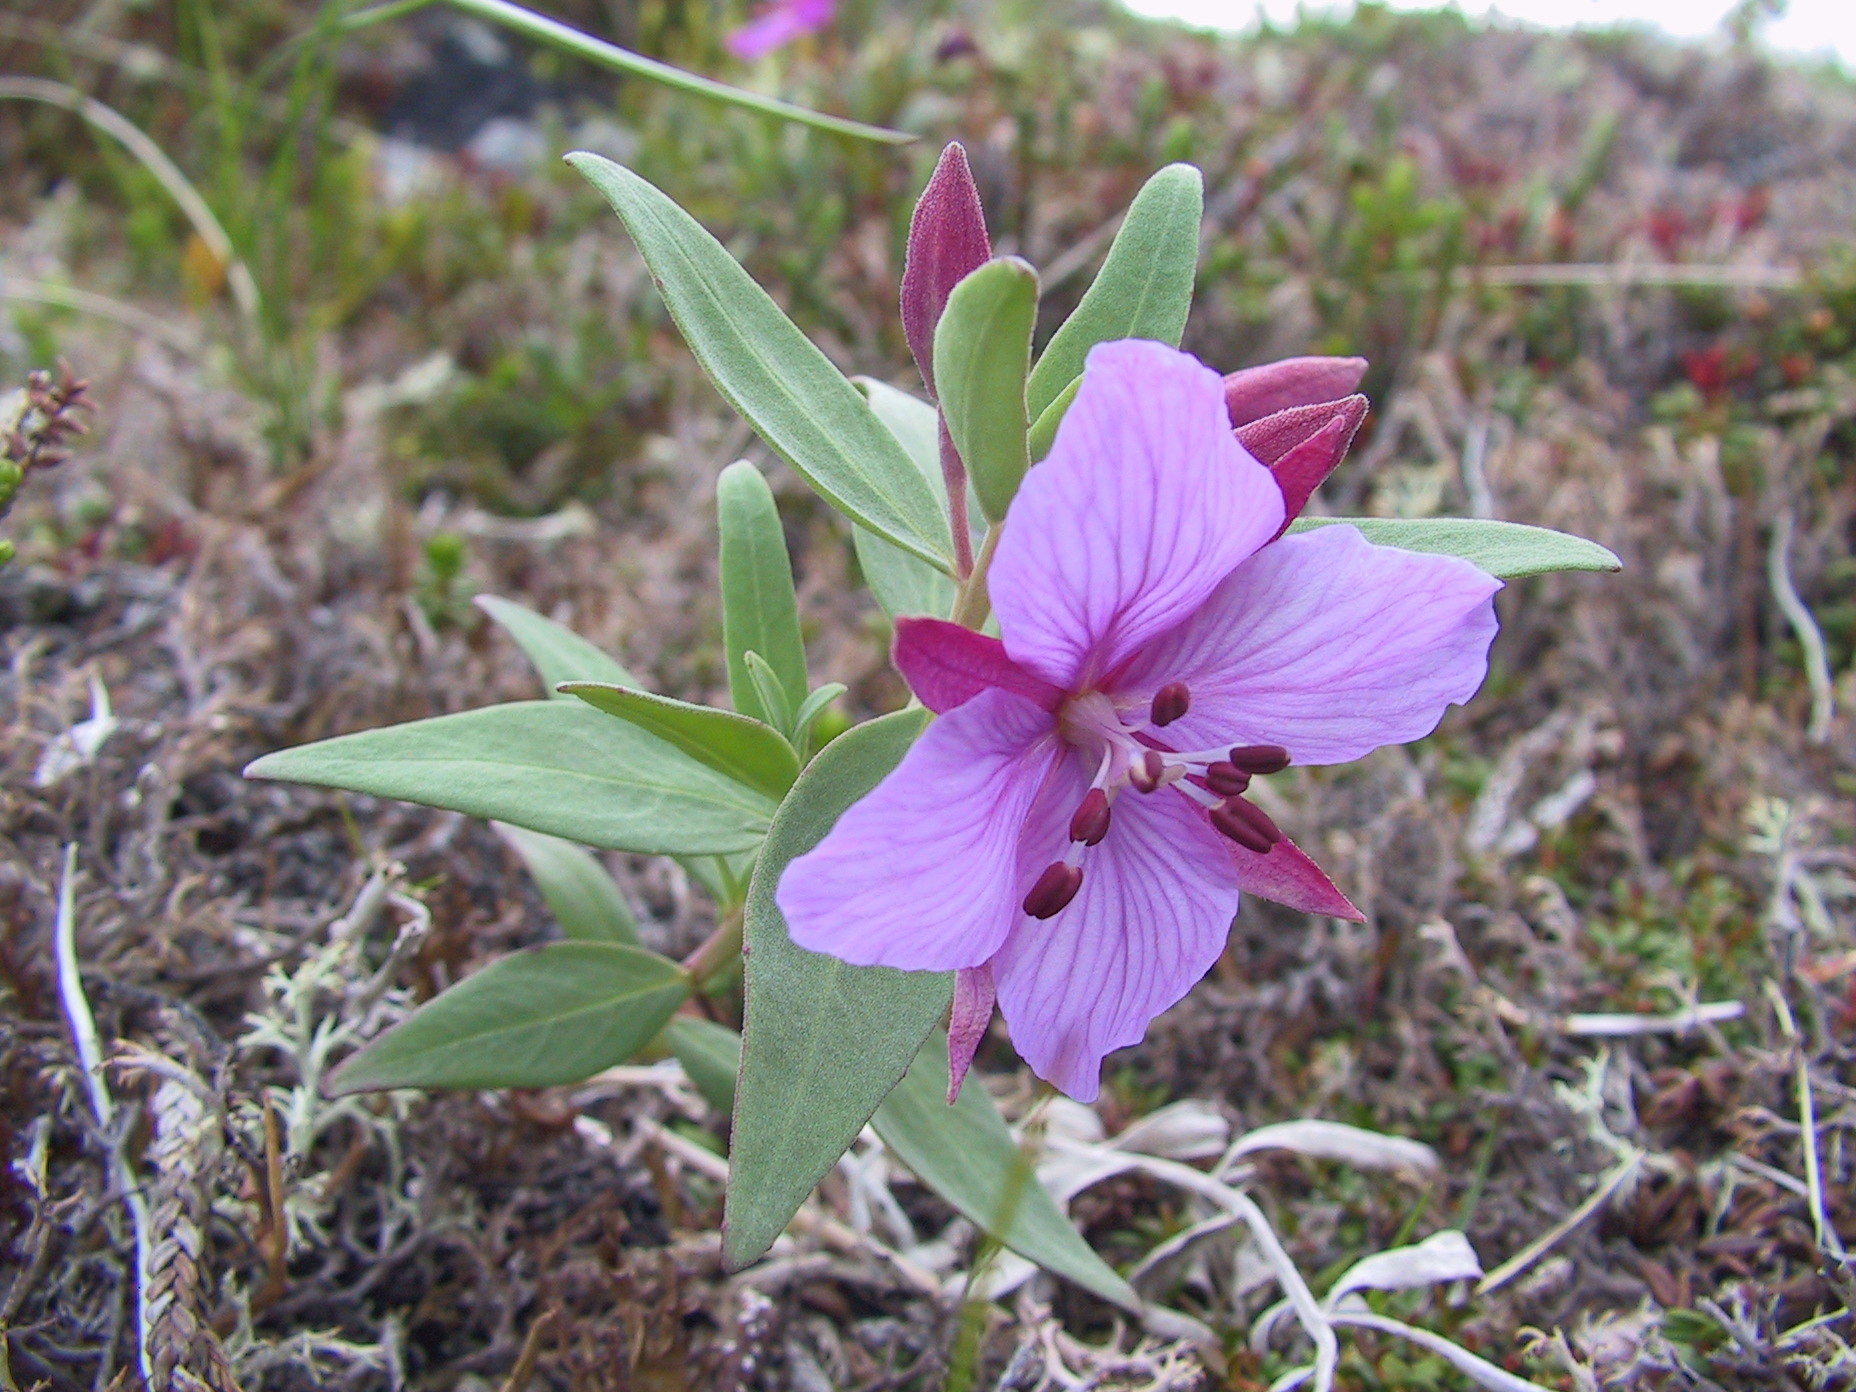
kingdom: Plantae
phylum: Tracheophyta
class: Magnoliopsida
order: Myrtales
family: Onagraceae
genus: Chamaenerion
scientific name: Chamaenerion latifolium
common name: Dwarf fireweed
